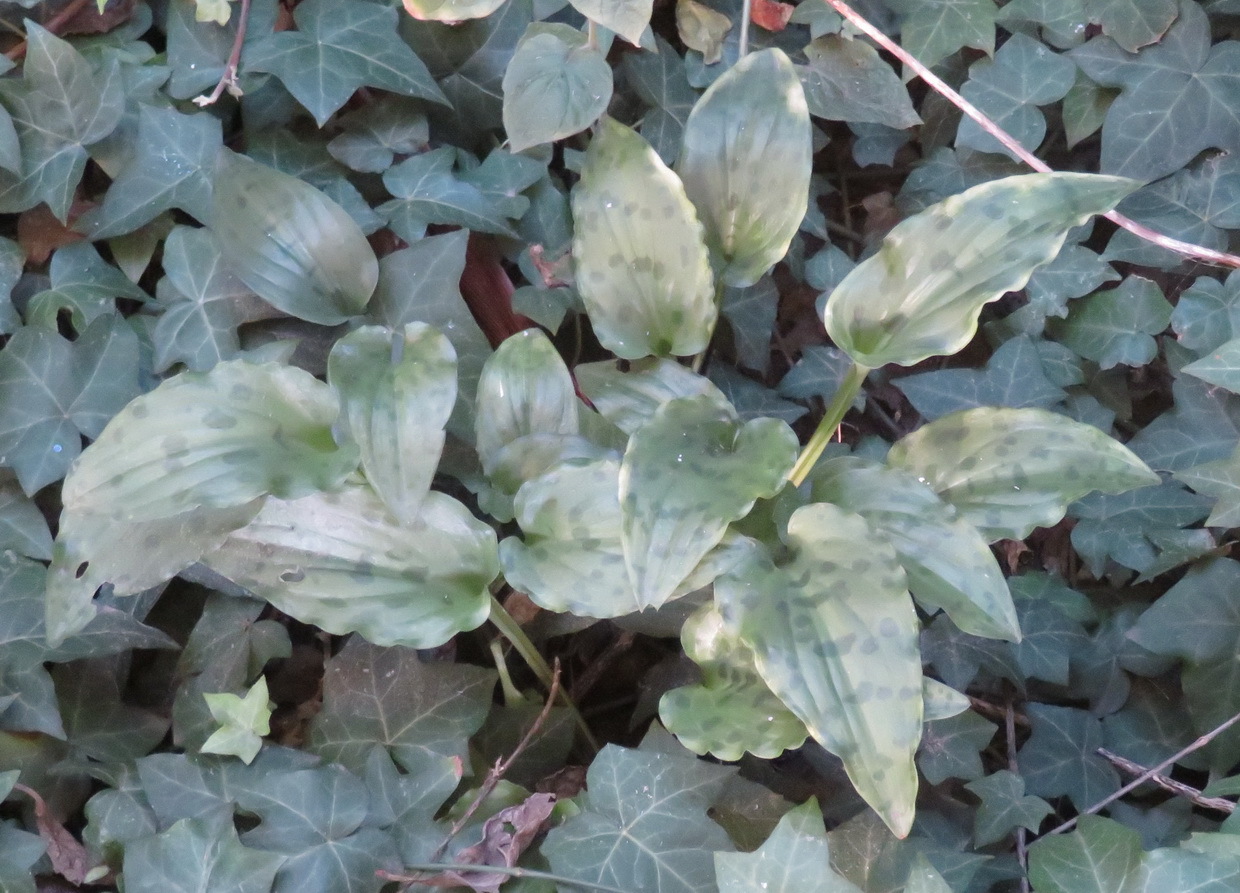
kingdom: Plantae
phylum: Tracheophyta
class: Liliopsida
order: Asparagales
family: Asparagaceae
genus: Drimiopsis
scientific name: Drimiopsis maculata
